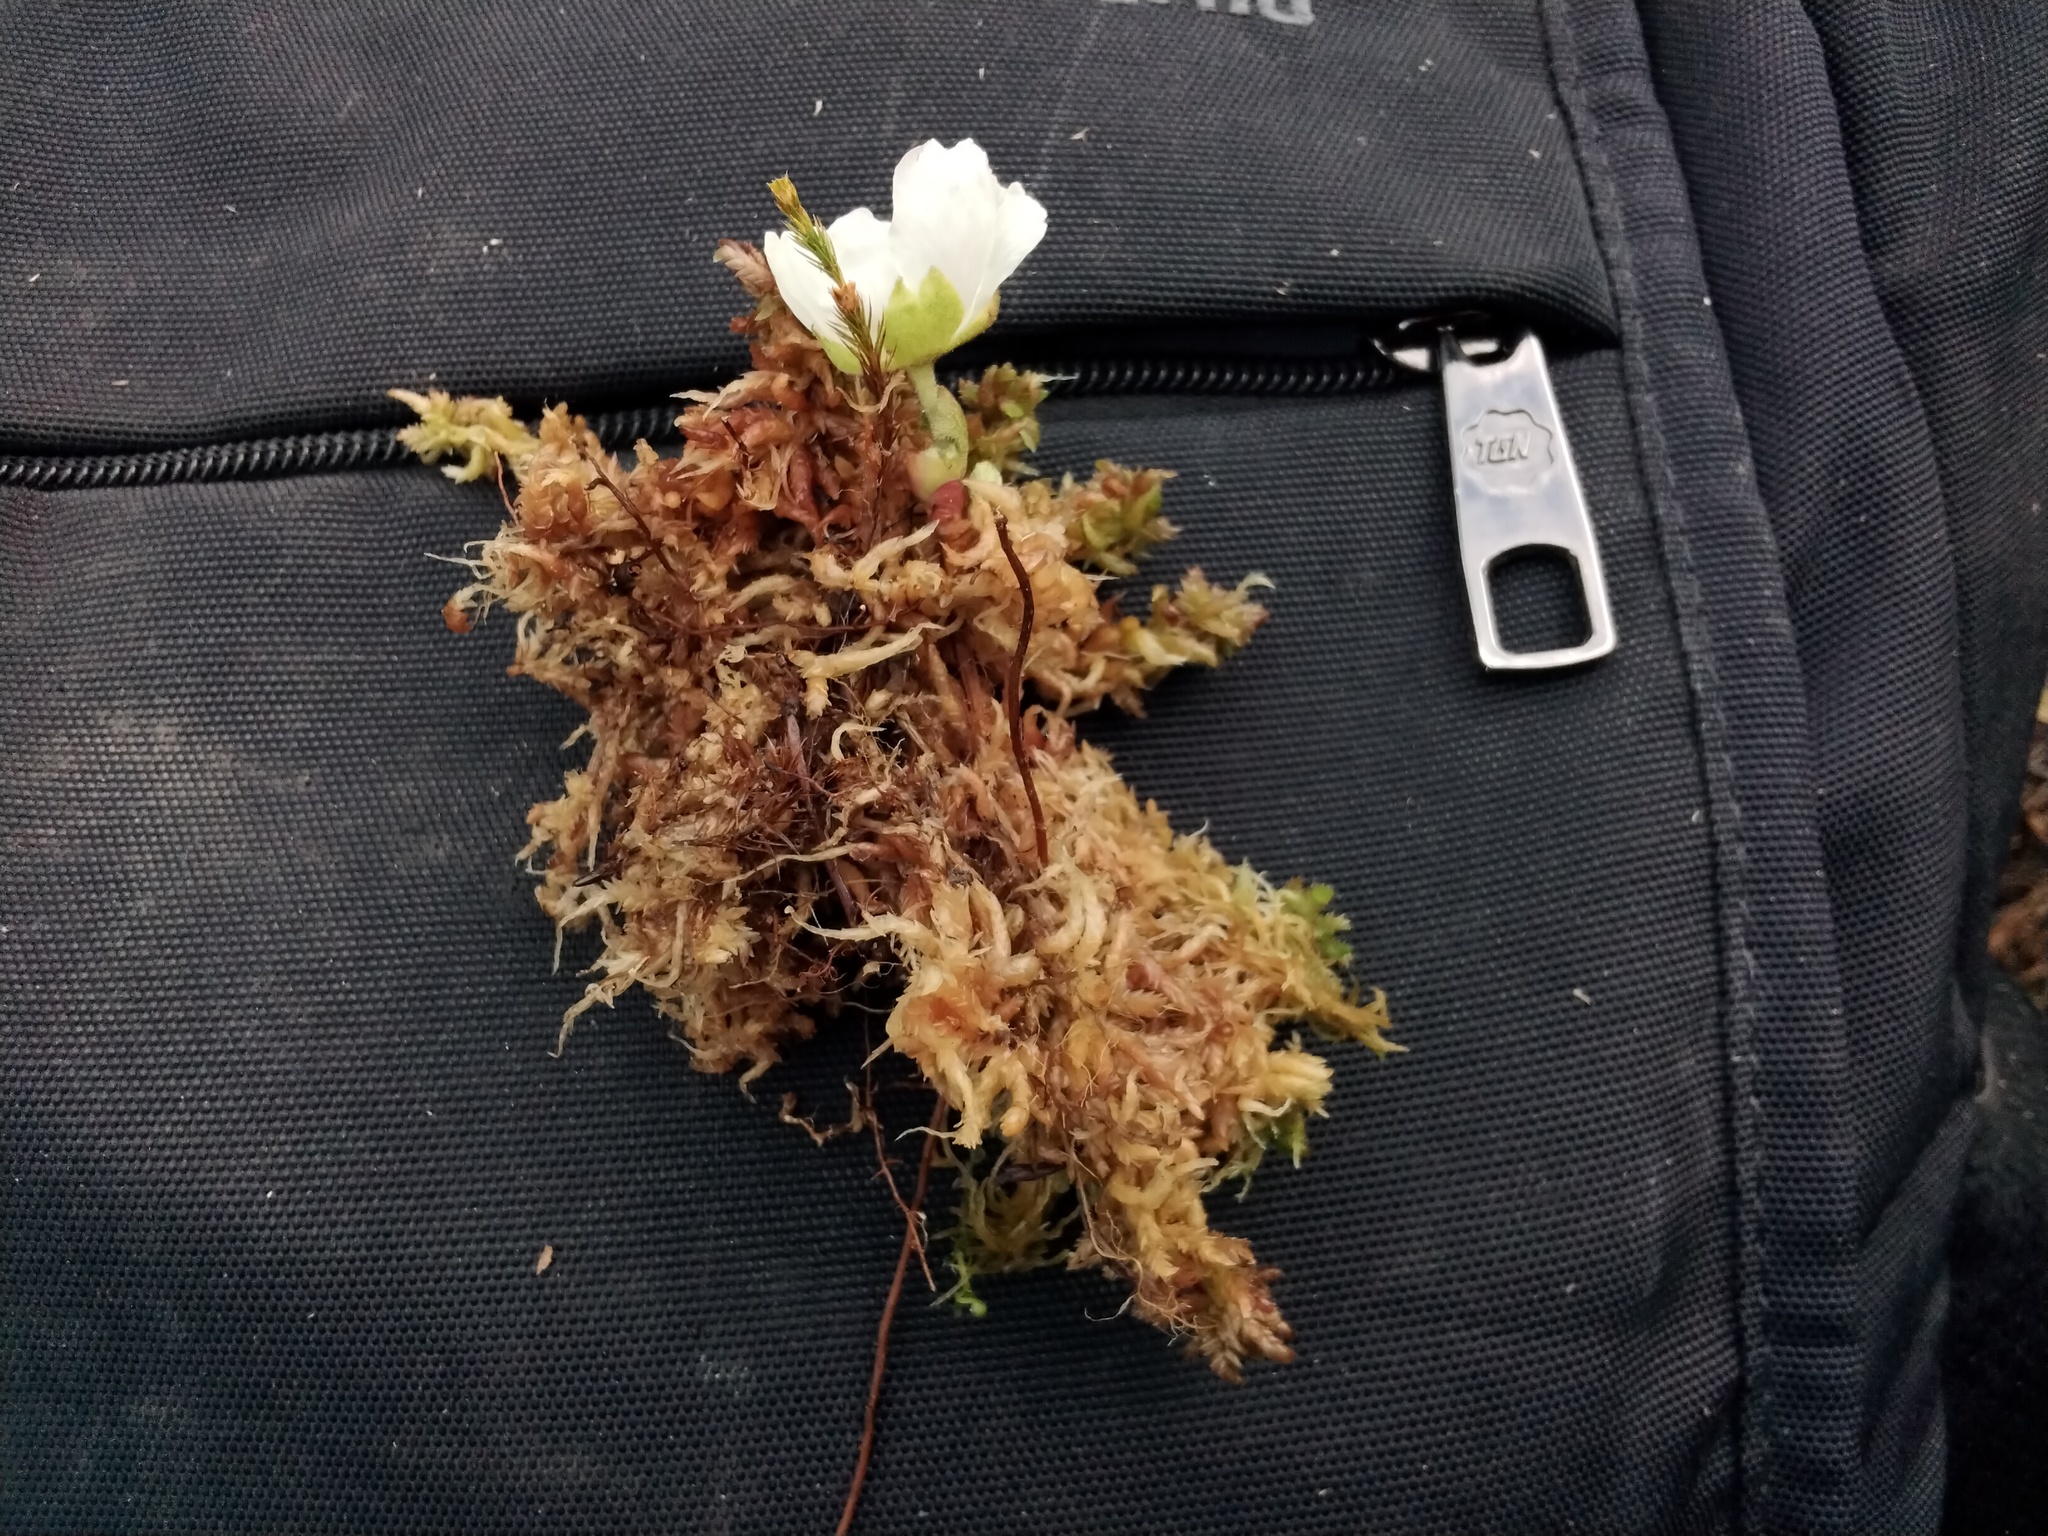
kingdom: Plantae
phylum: Tracheophyta
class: Magnoliopsida
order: Rosales
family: Rosaceae
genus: Rubus
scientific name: Rubus chamaemorus
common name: Cloudberry
